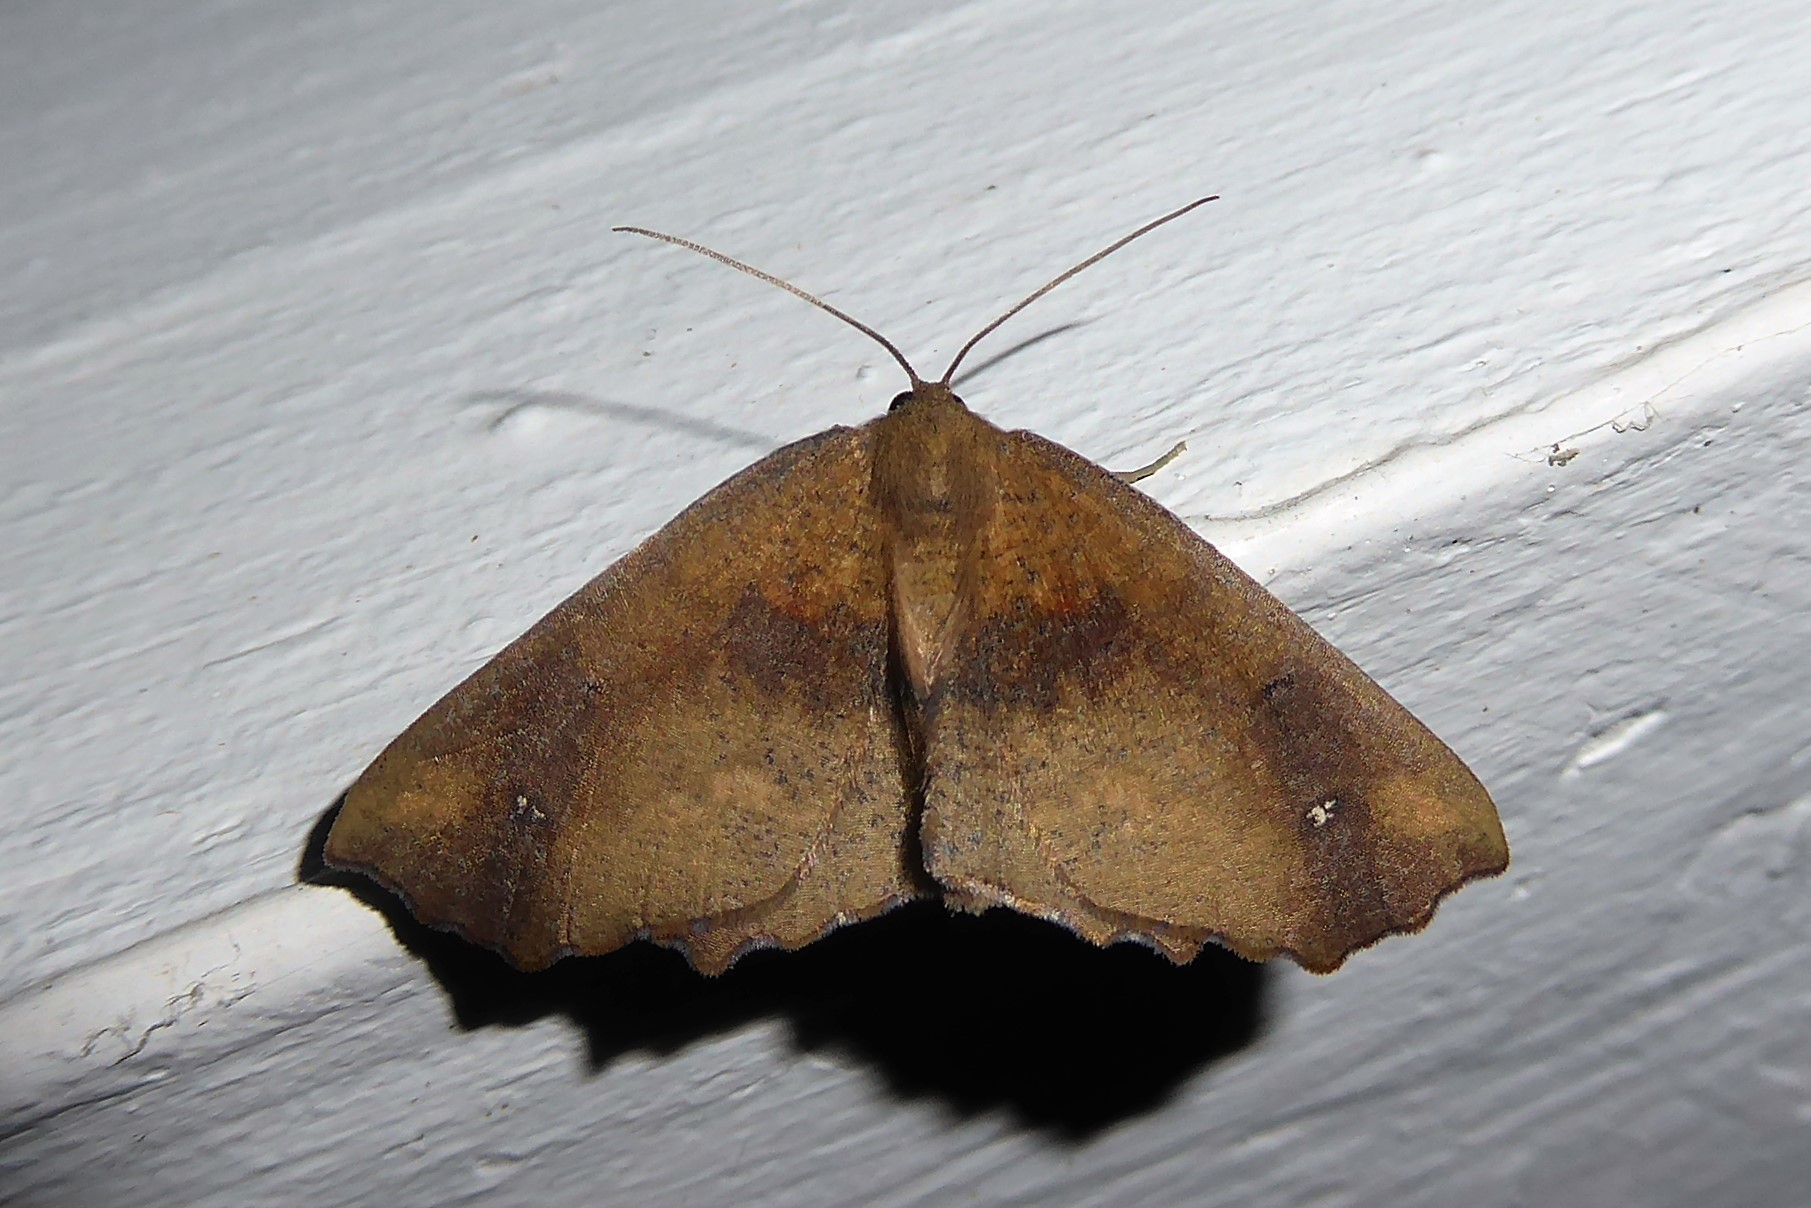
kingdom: Animalia
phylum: Arthropoda
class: Insecta
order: Lepidoptera
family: Geometridae
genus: Xyridacma
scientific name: Xyridacma ustaria
